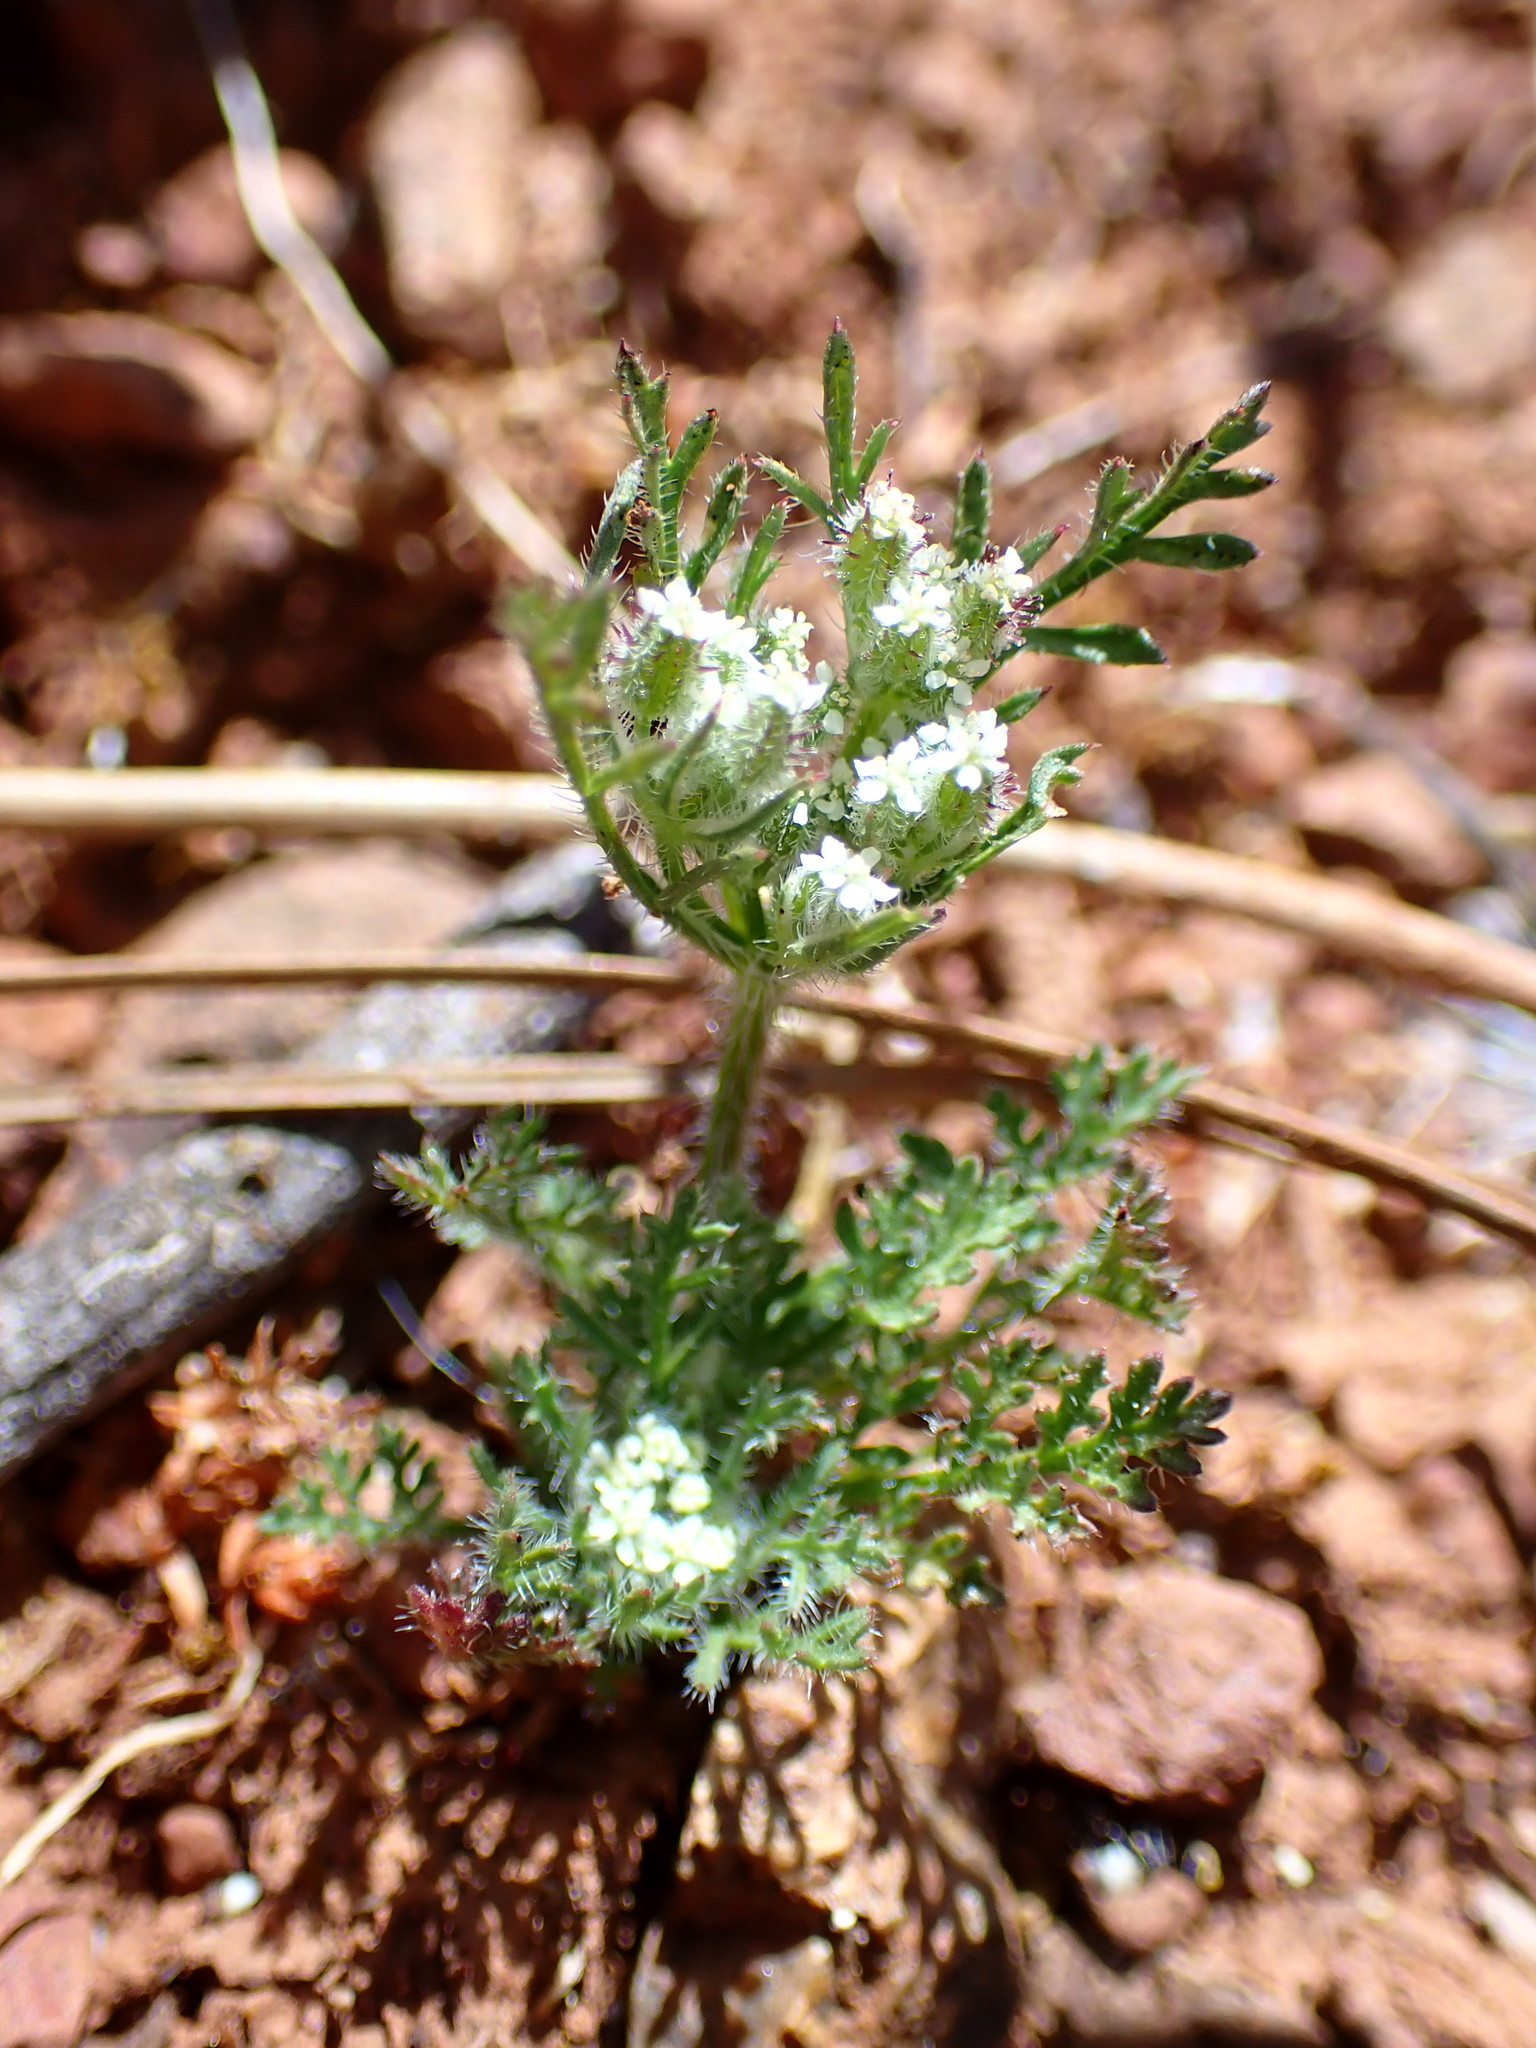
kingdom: Plantae
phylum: Tracheophyta
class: Magnoliopsida
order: Apiales
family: Apiaceae
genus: Daucus
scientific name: Daucus pusillus
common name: Southwest wild carrot
